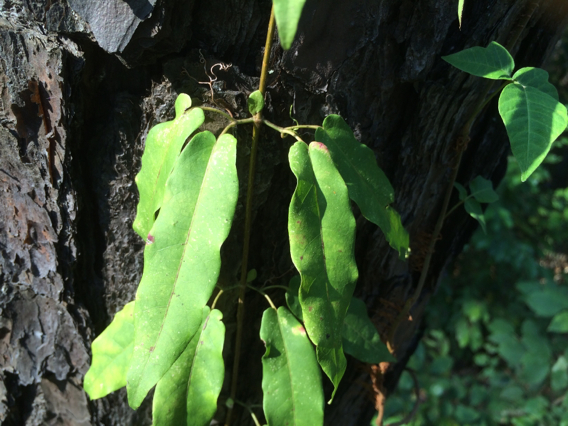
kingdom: Plantae
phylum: Tracheophyta
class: Magnoliopsida
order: Lamiales
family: Bignoniaceae
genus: Bignonia
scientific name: Bignonia capreolata
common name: Crossvine
